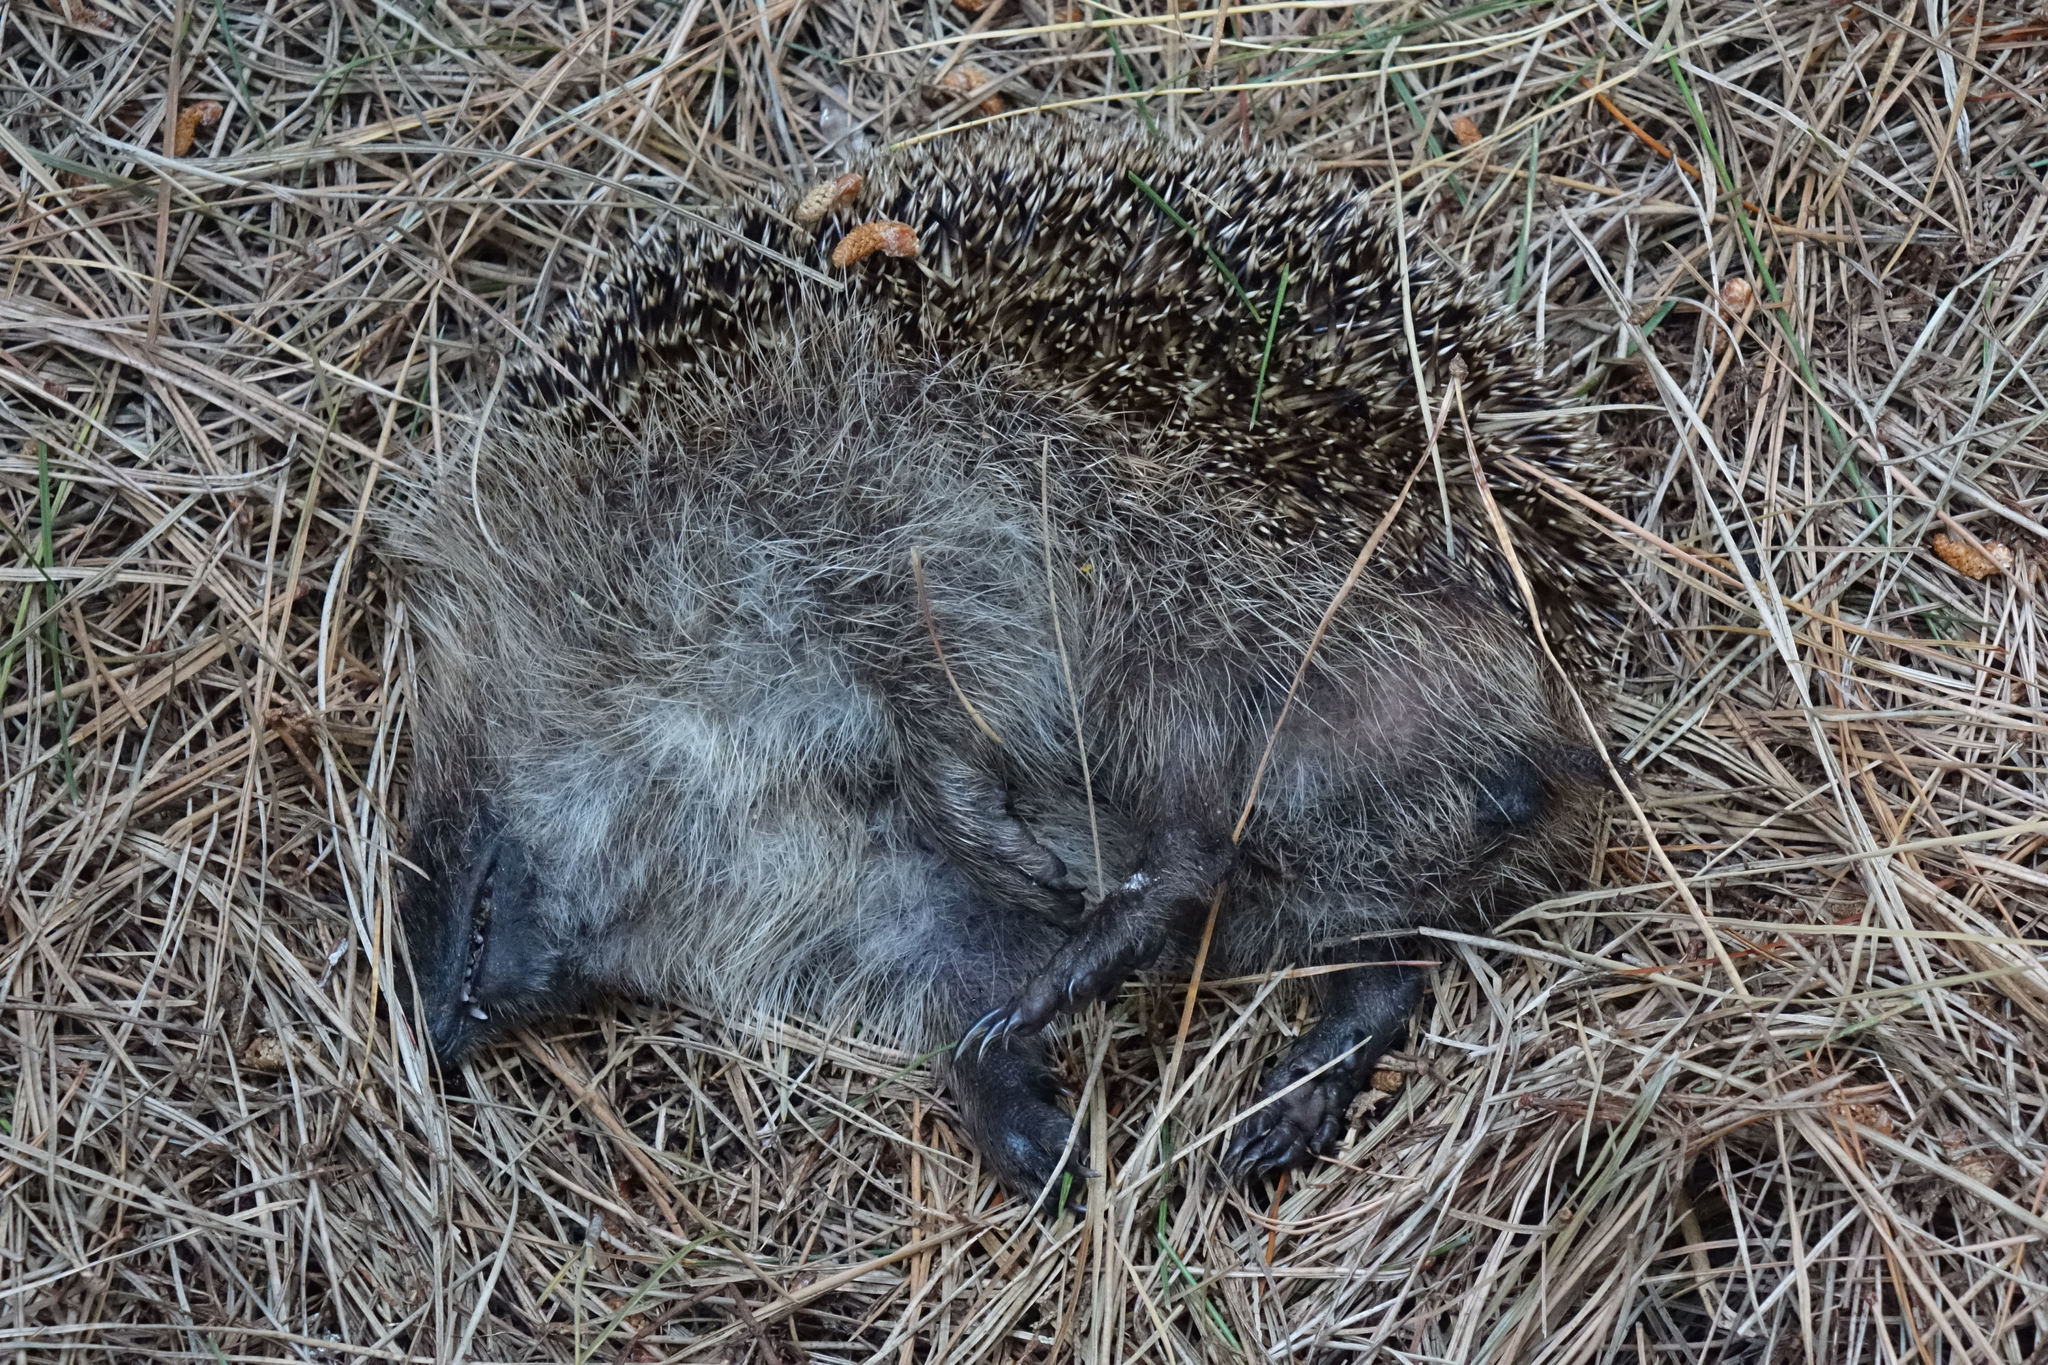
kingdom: Animalia
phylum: Chordata
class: Mammalia
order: Erinaceomorpha
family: Erinaceidae
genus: Erinaceus
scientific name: Erinaceus europaeus
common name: West european hedgehog
